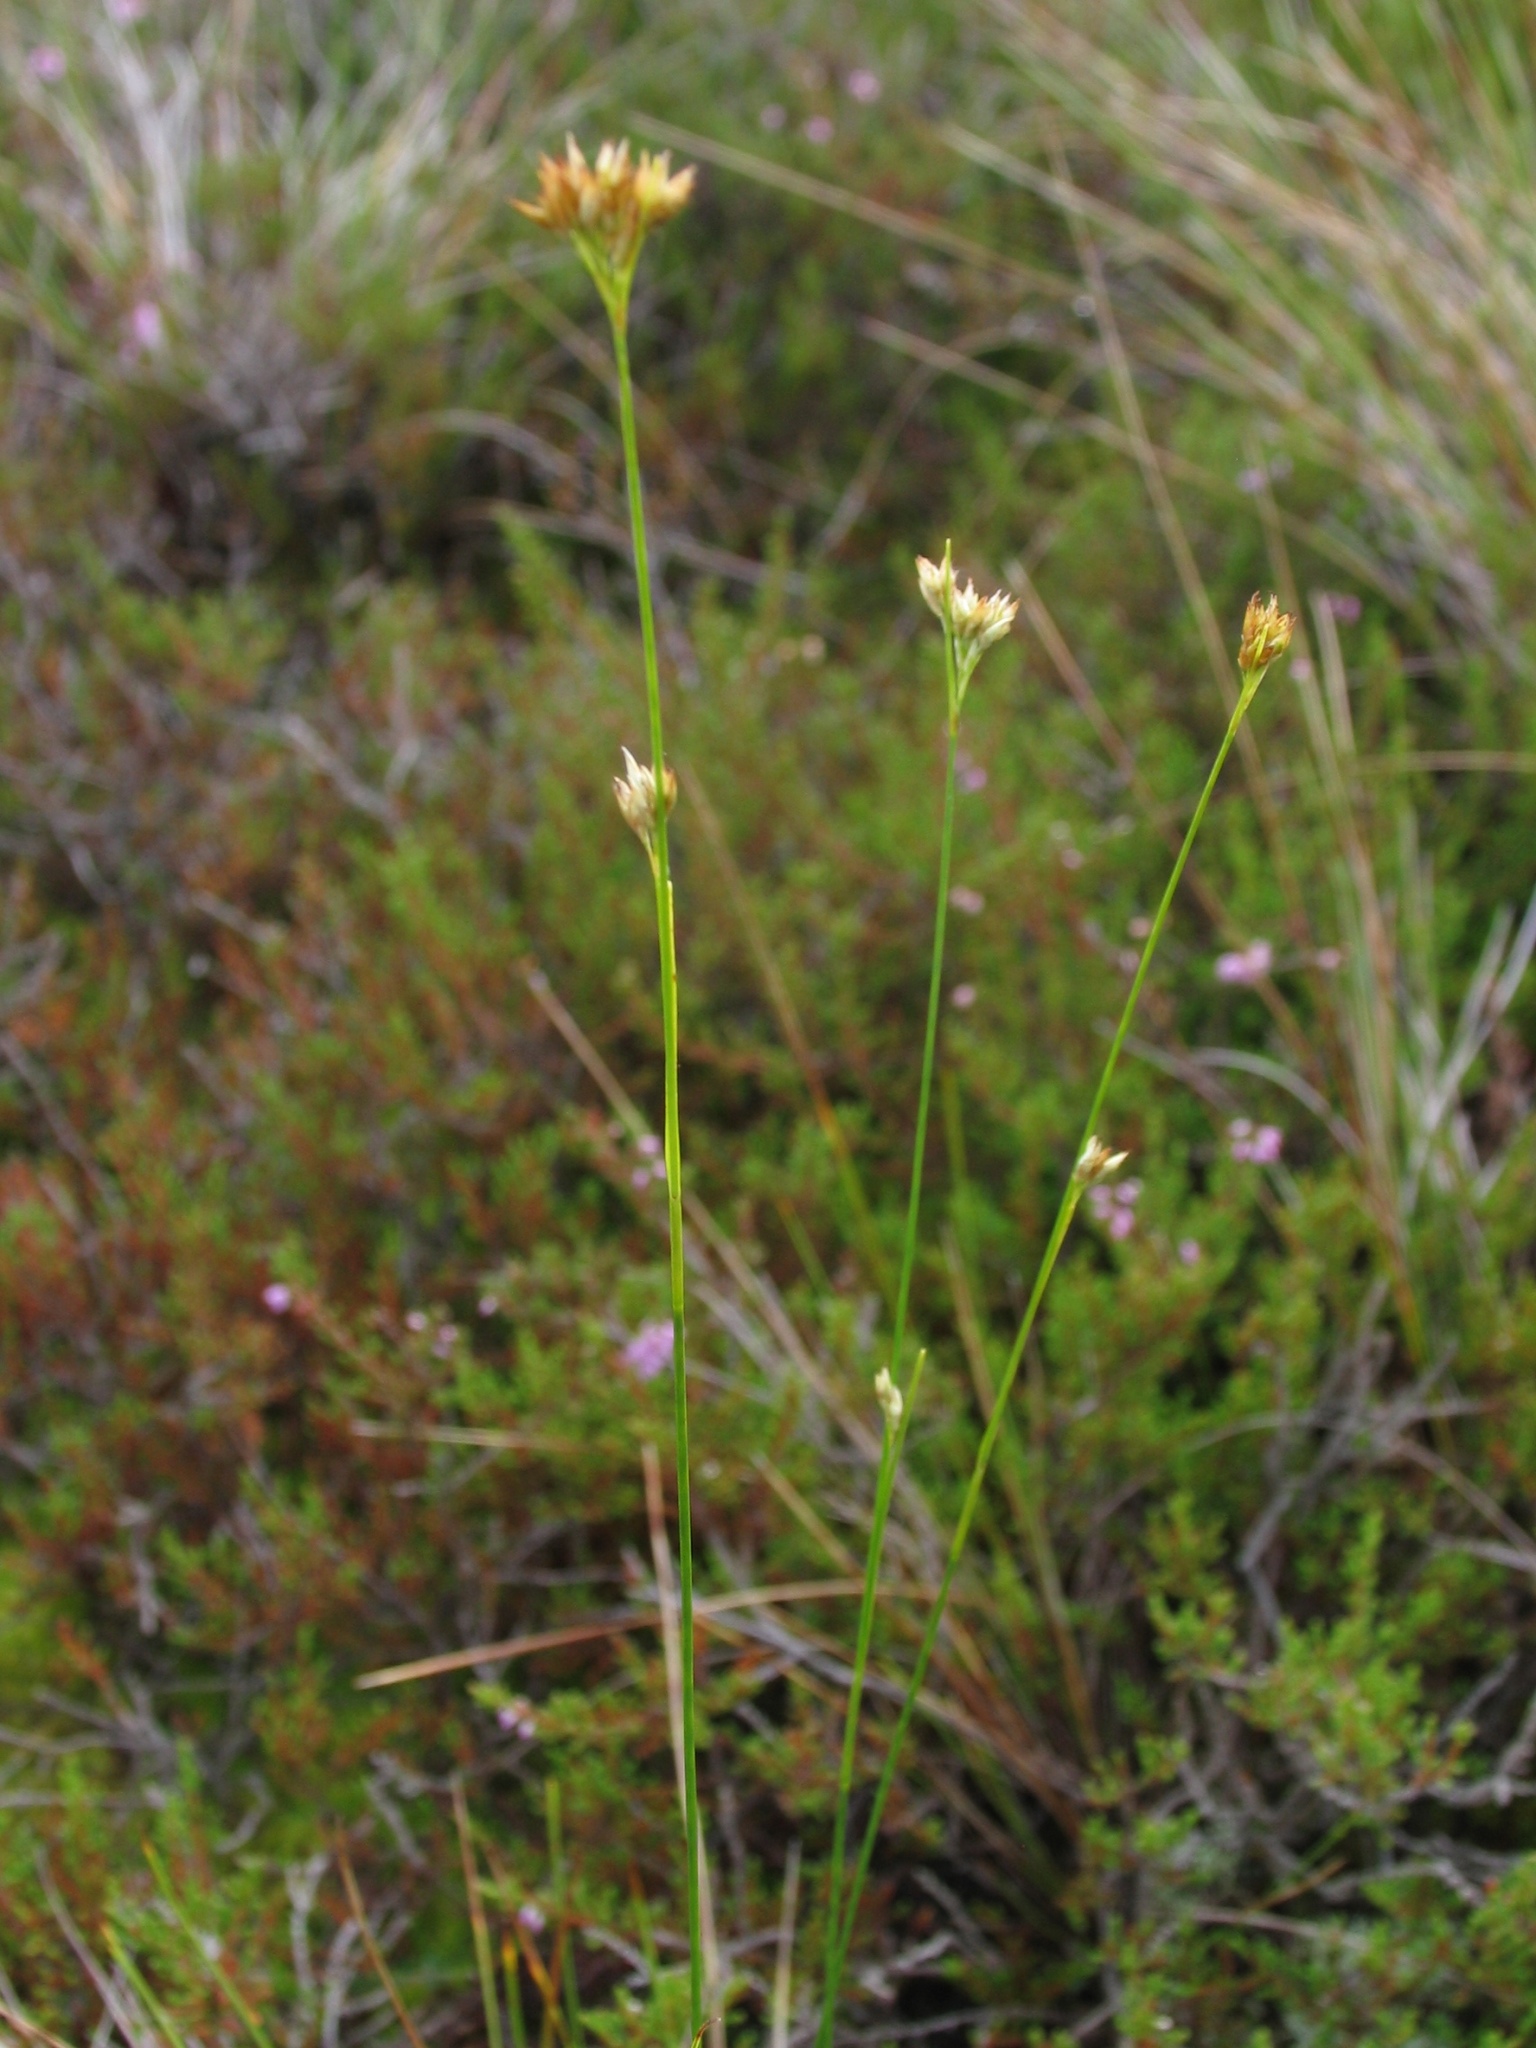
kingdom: Plantae
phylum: Tracheophyta
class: Liliopsida
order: Poales
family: Cyperaceae
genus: Rhynchospora
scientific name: Rhynchospora alba
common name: White beak-sedge
